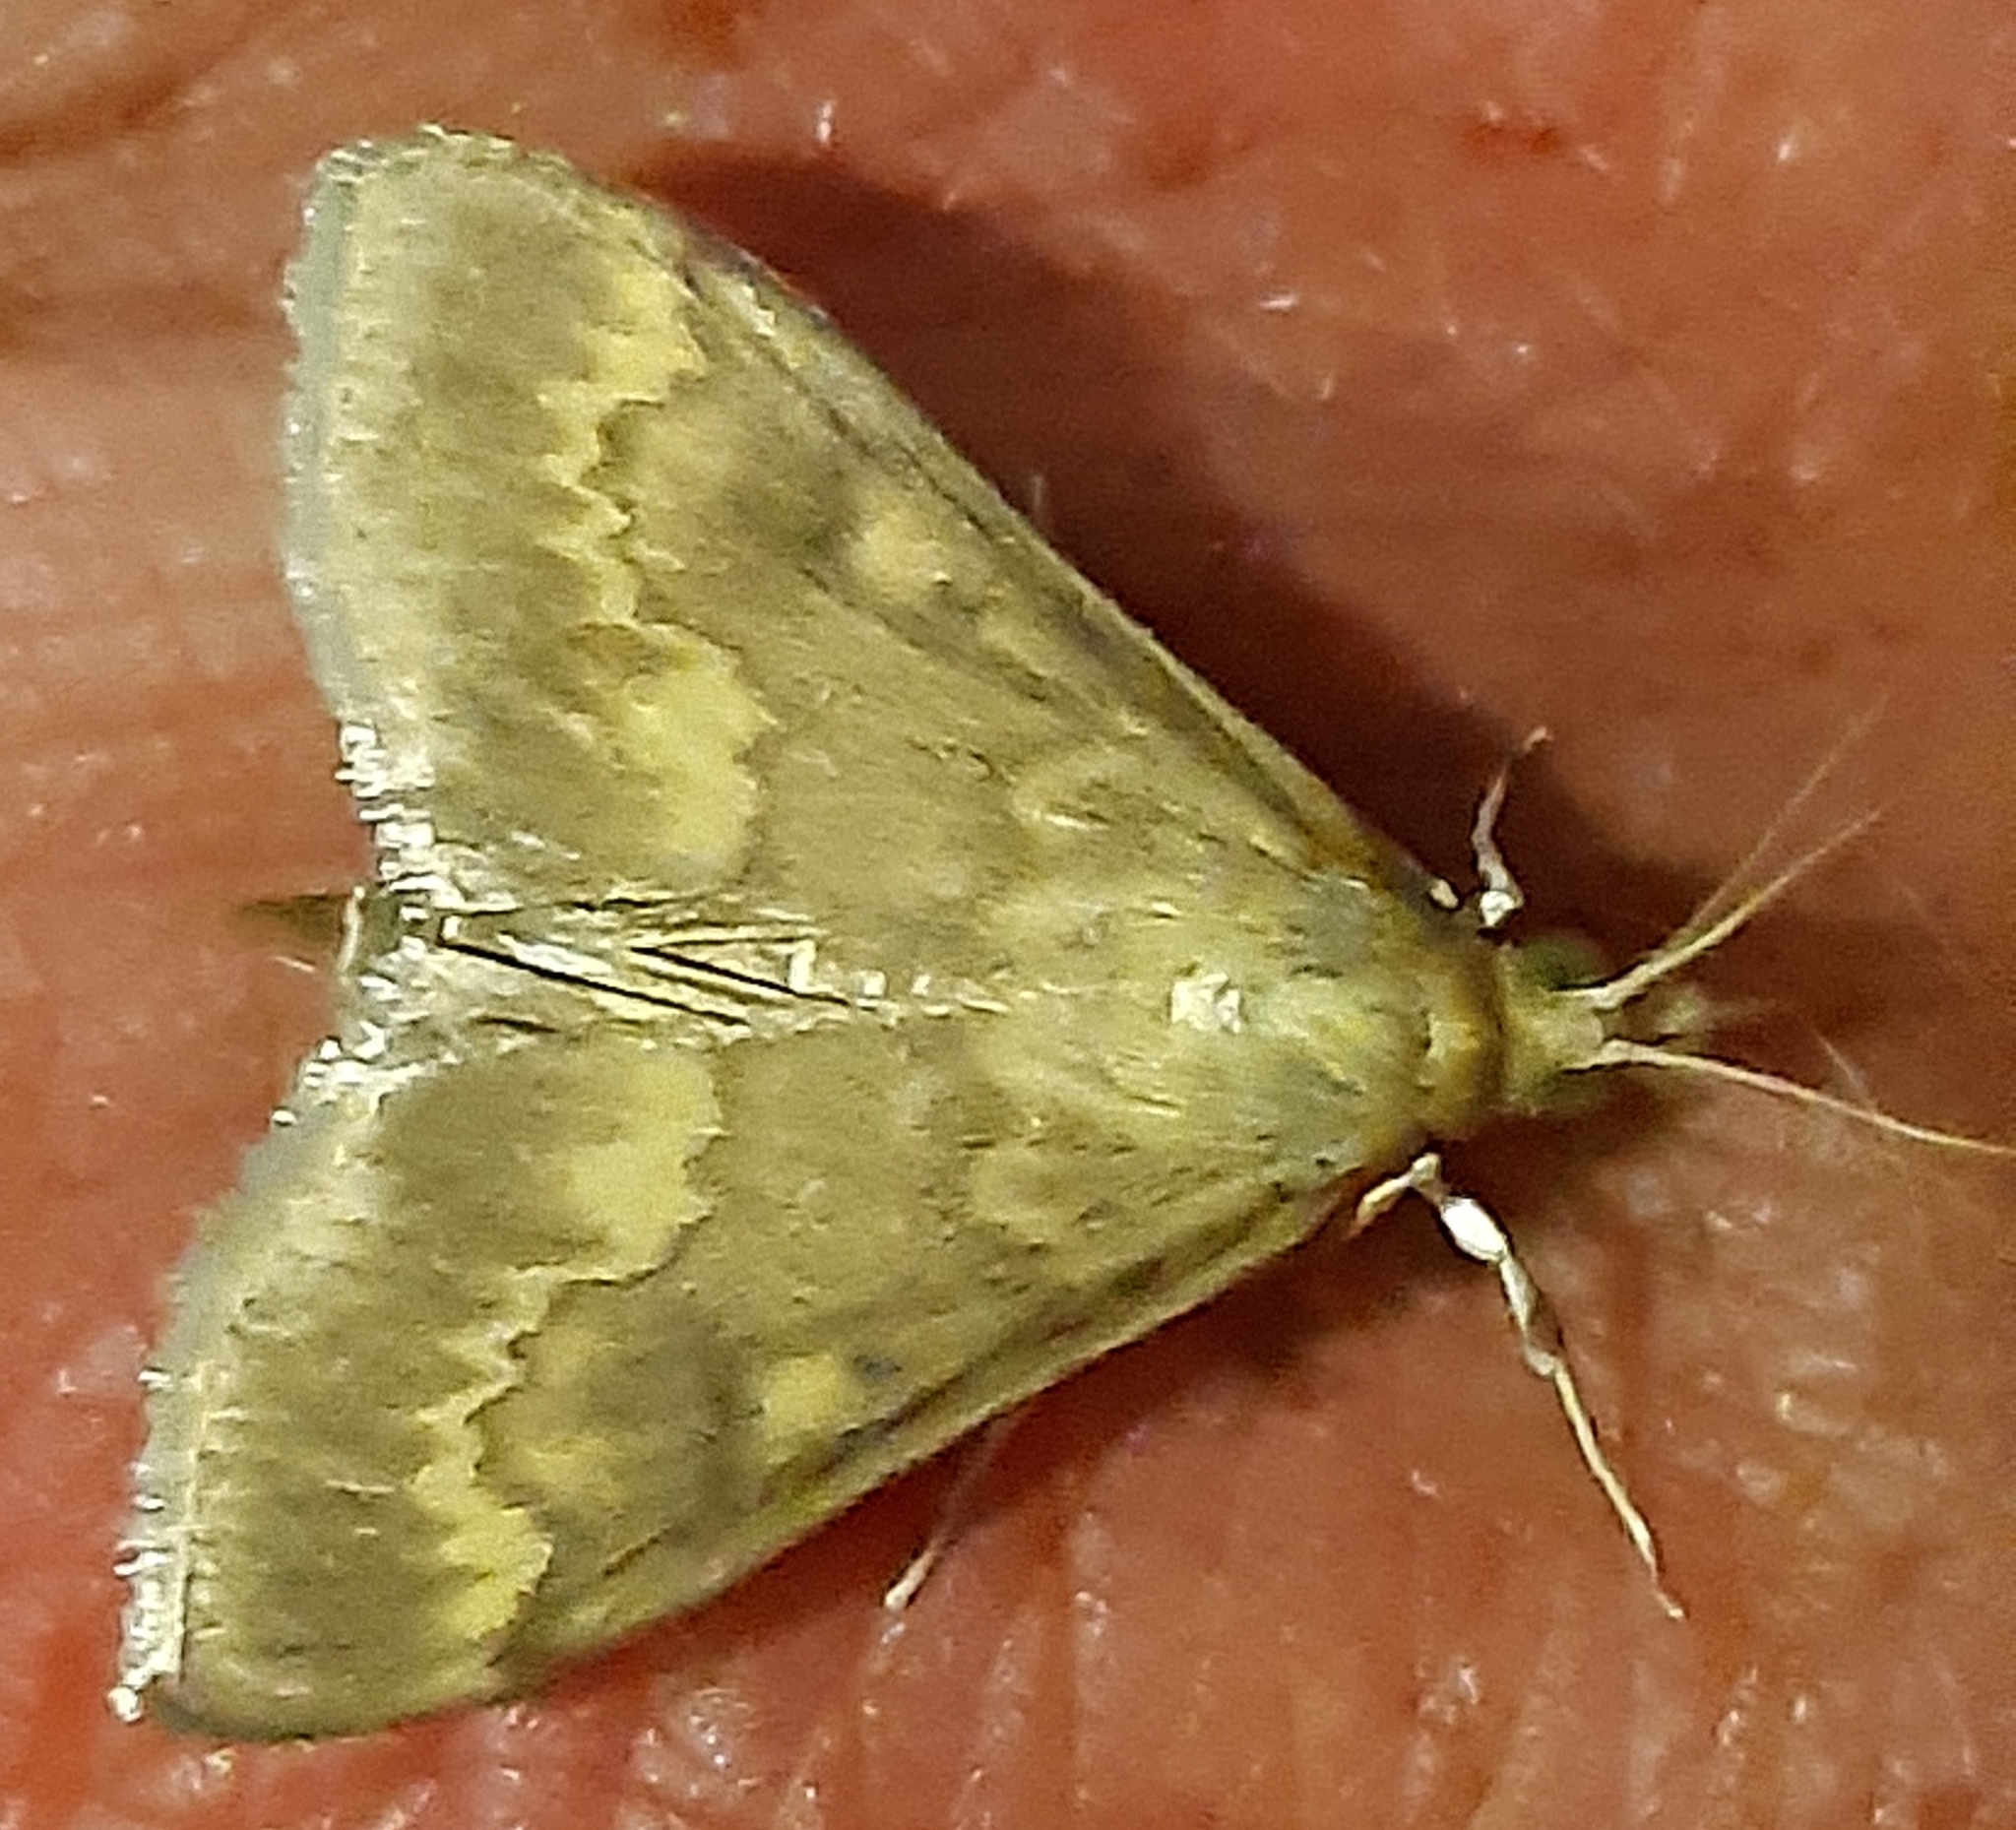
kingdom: Animalia
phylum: Arthropoda
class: Insecta
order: Lepidoptera
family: Crambidae
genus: Ostrinia
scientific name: Ostrinia nubilalis
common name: European corn borer
